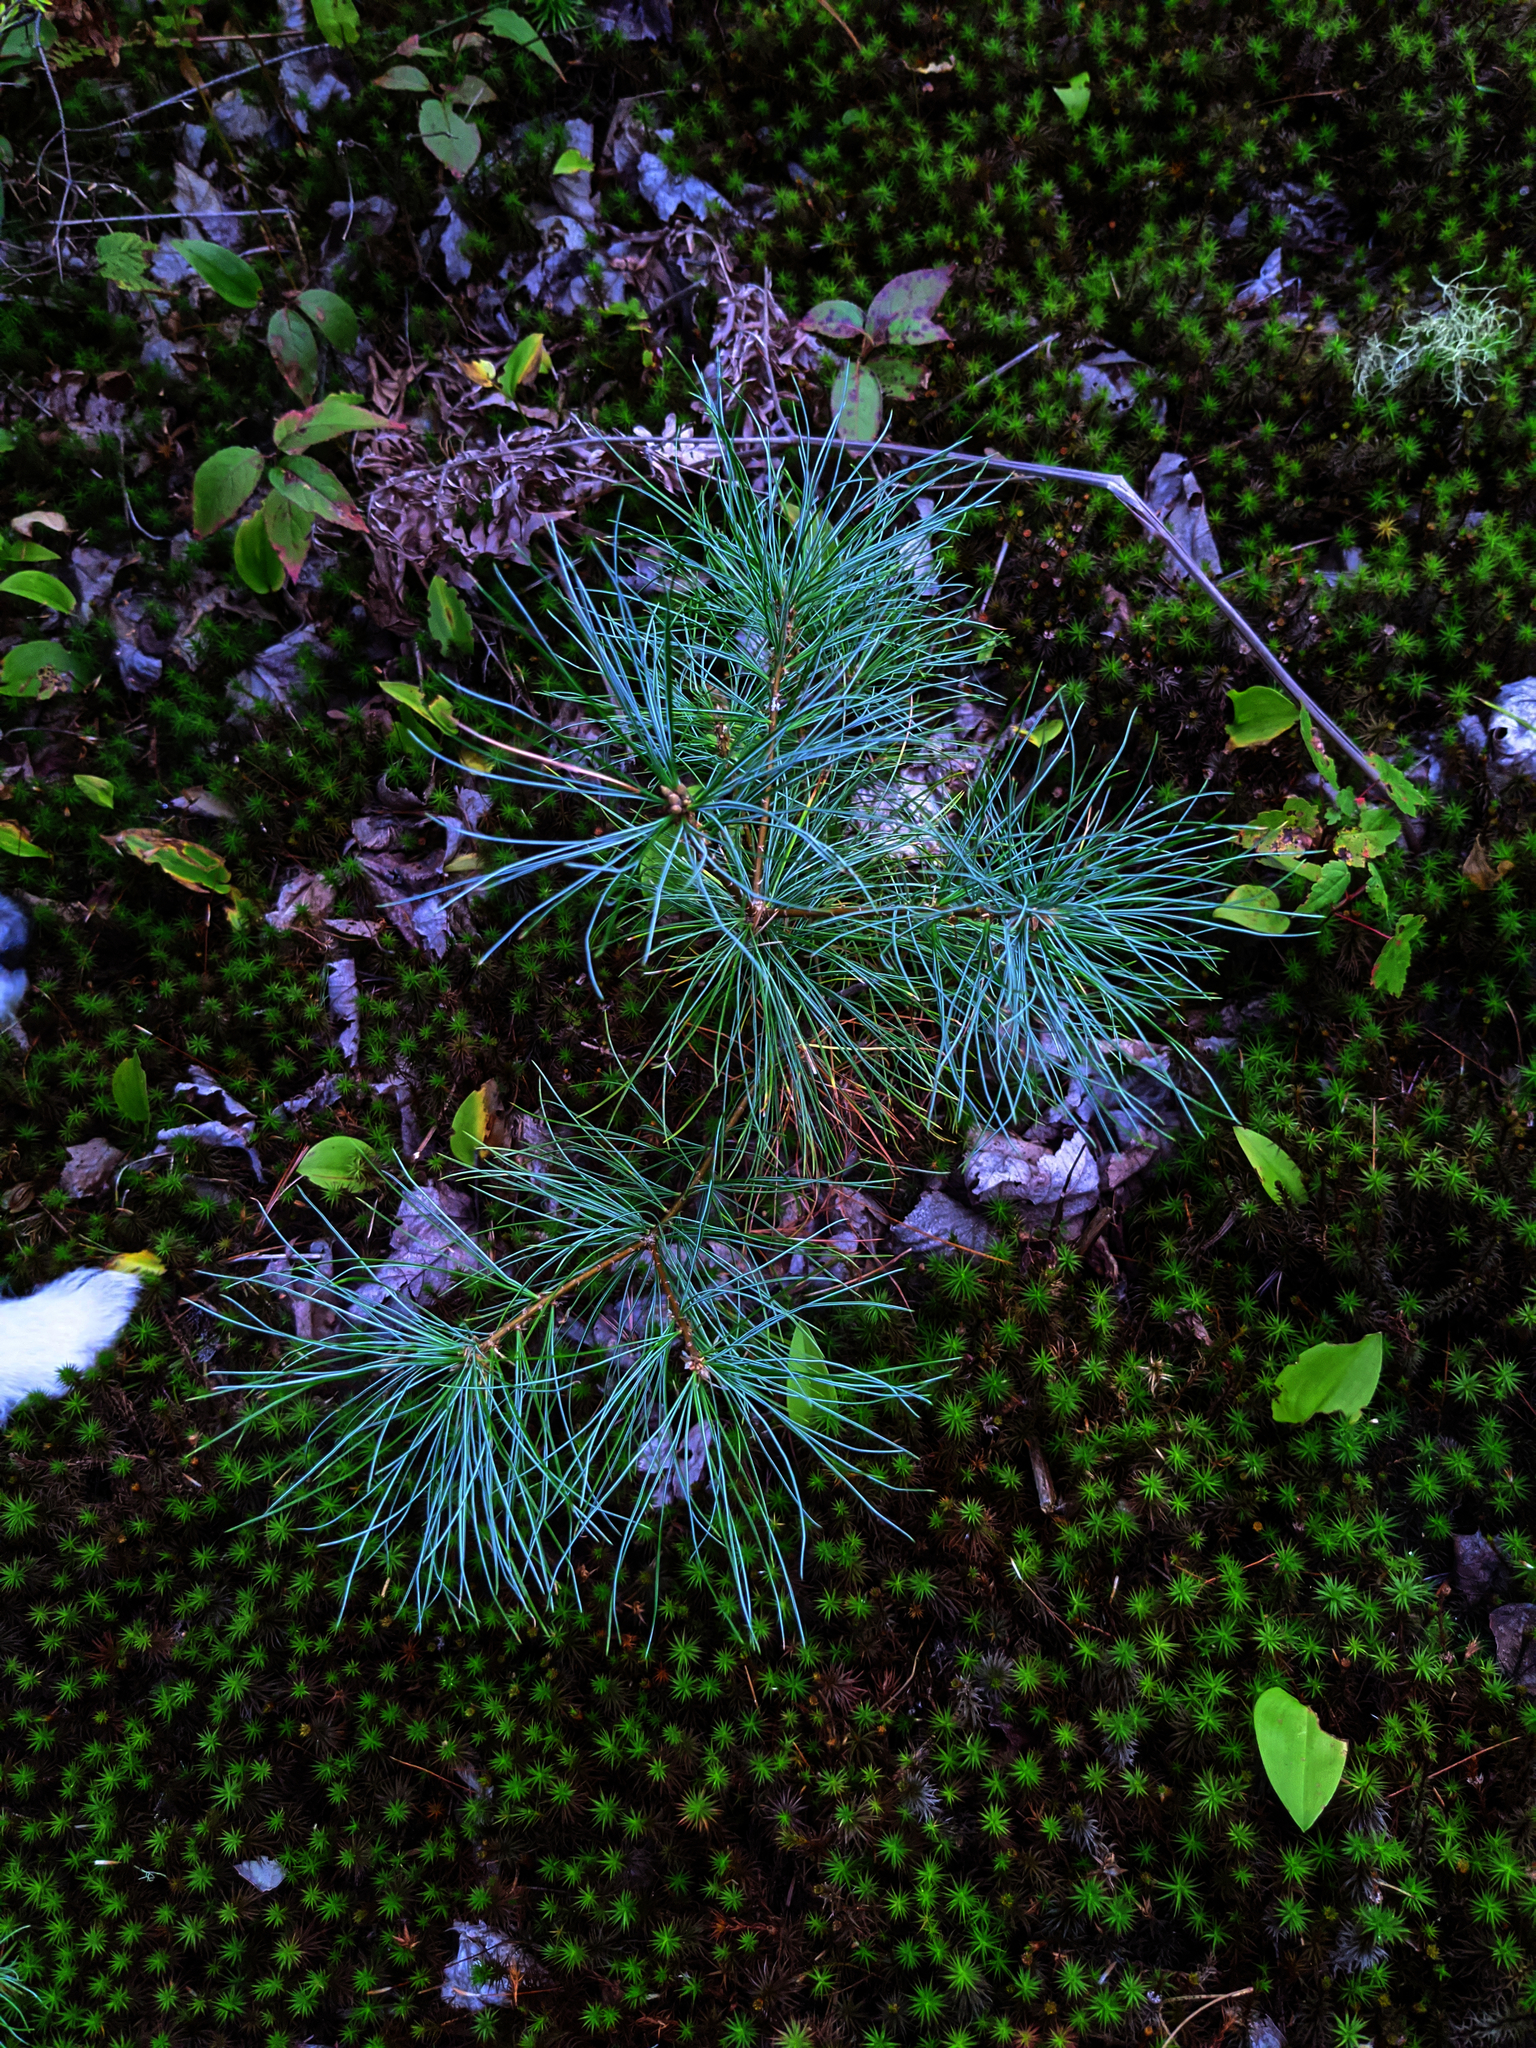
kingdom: Plantae
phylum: Tracheophyta
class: Pinopsida
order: Pinales
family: Pinaceae
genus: Pinus
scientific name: Pinus strobus
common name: Weymouth pine
